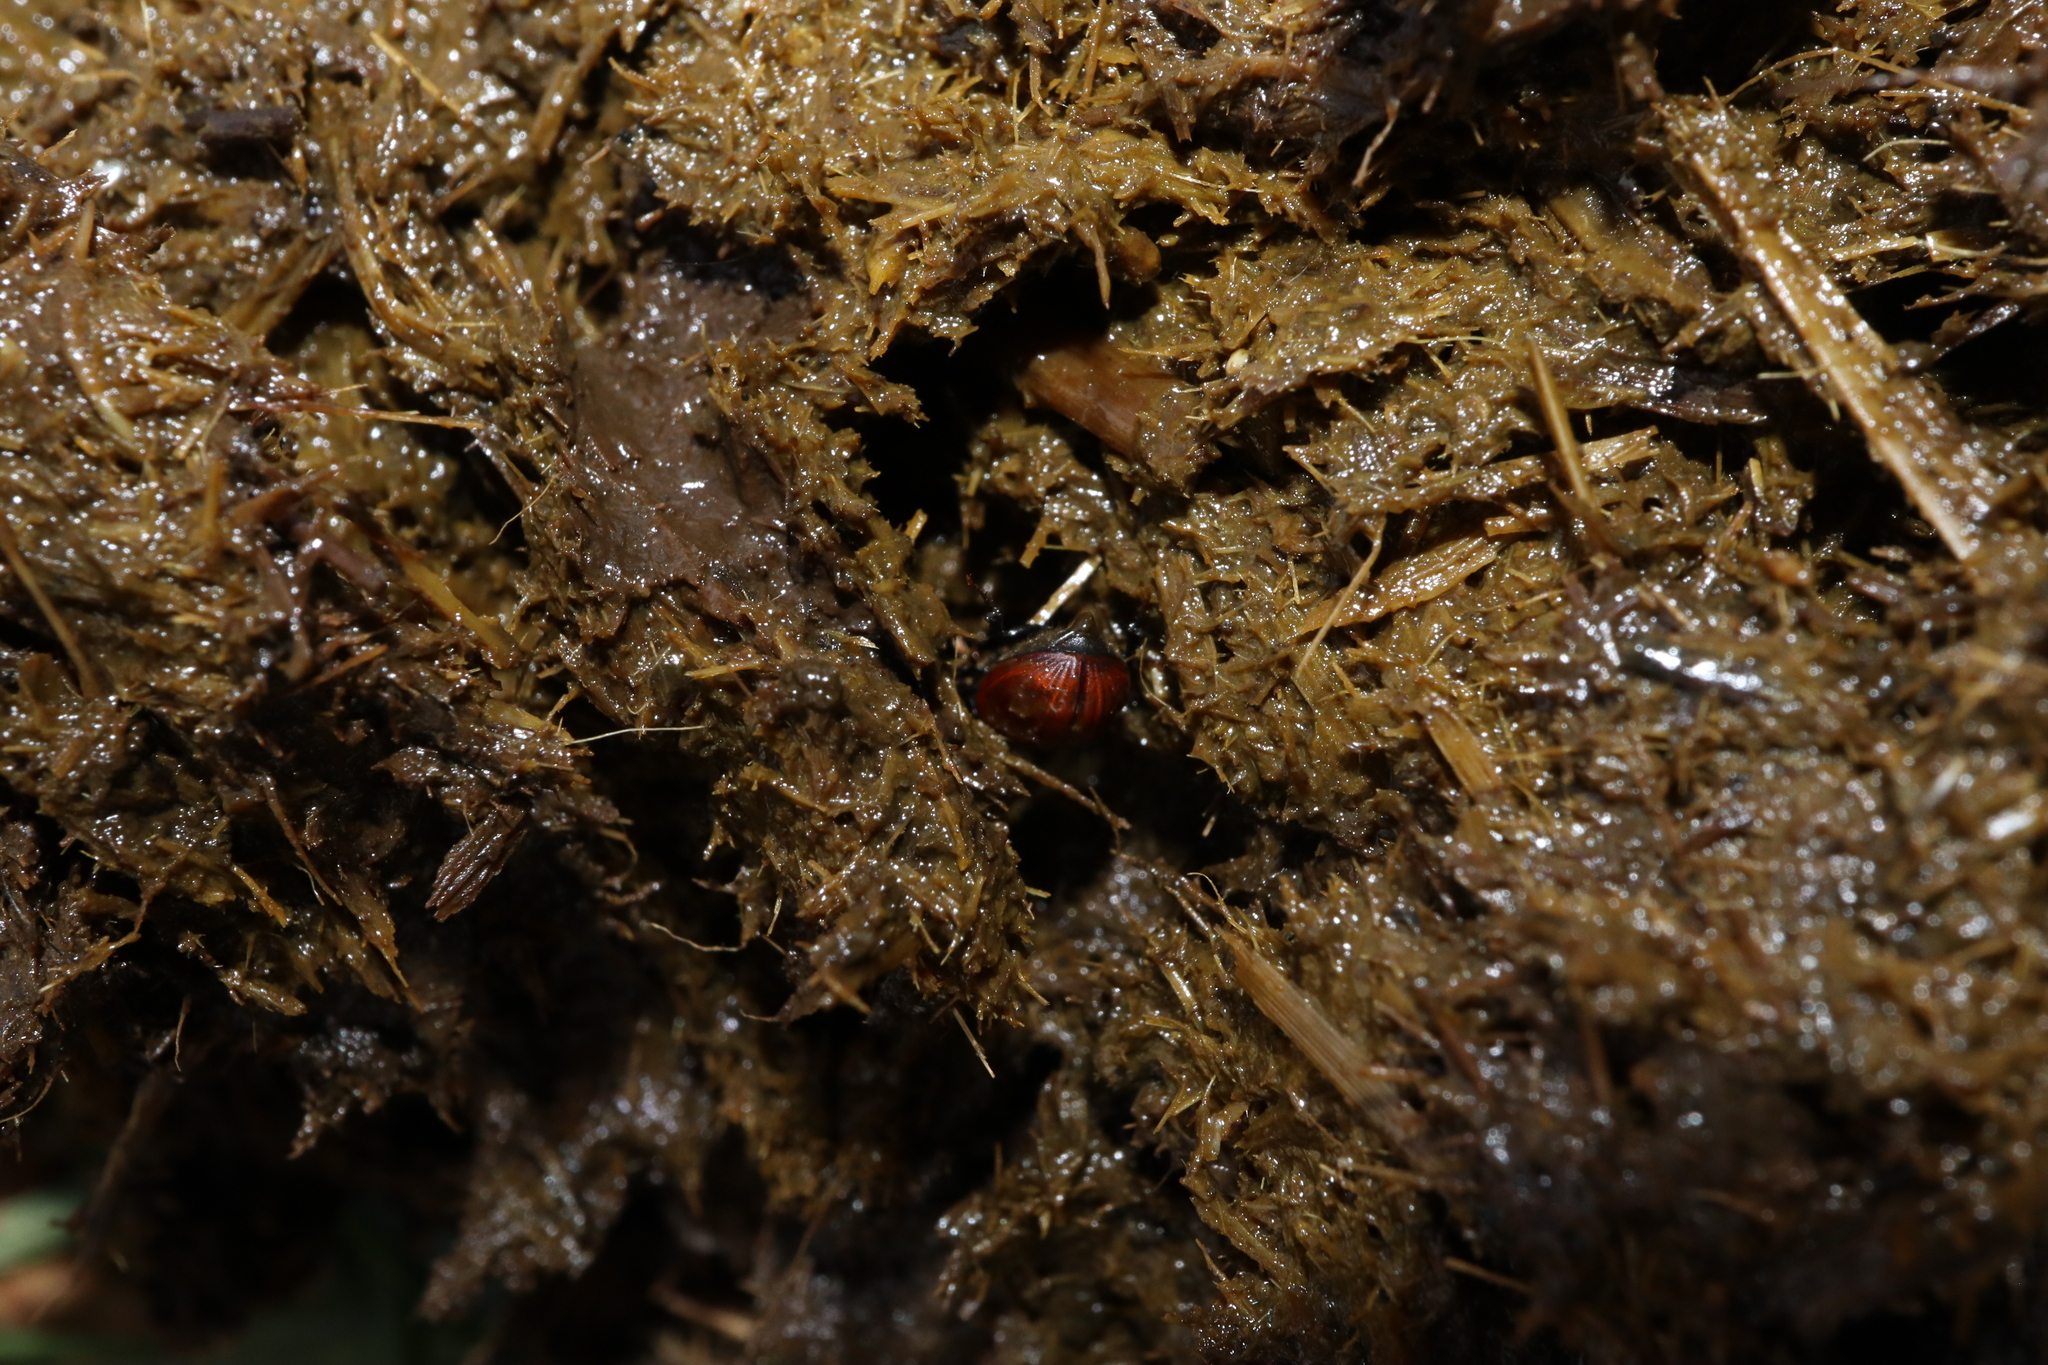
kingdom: Animalia
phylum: Arthropoda
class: Insecta
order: Coleoptera
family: Scarabaeidae
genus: Aphodius
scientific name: Aphodius fimetarius
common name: Common dung beetle
